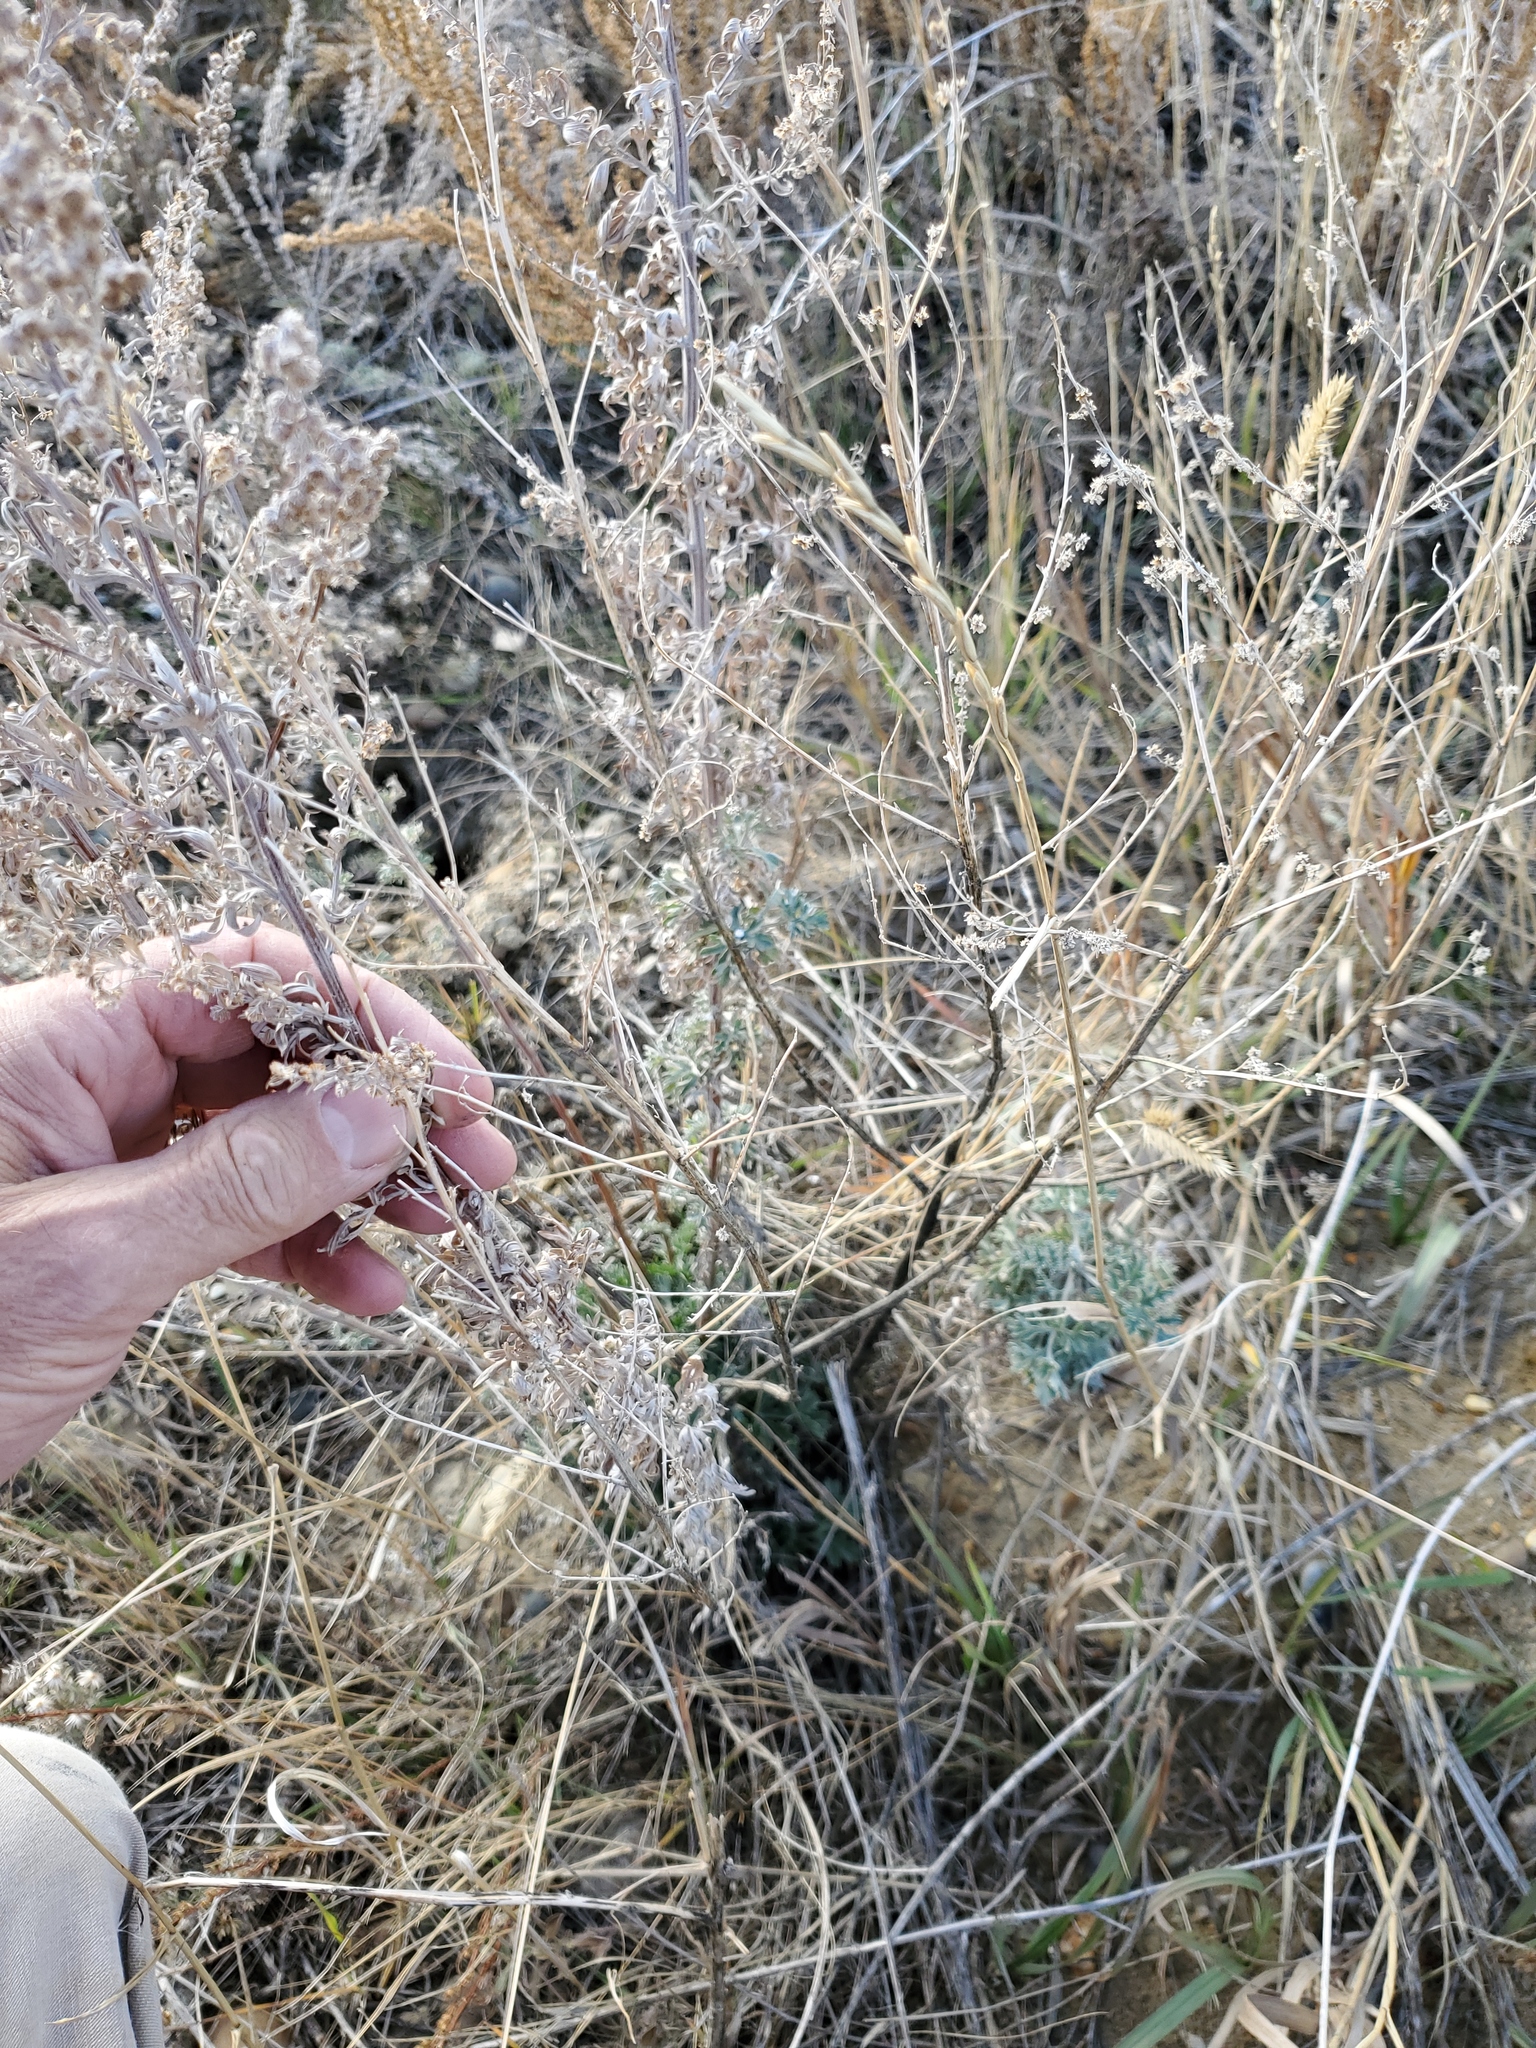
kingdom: Plantae
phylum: Tracheophyta
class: Magnoliopsida
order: Asterales
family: Asteraceae
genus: Artemisia
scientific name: Artemisia absinthium
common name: Wormwood
